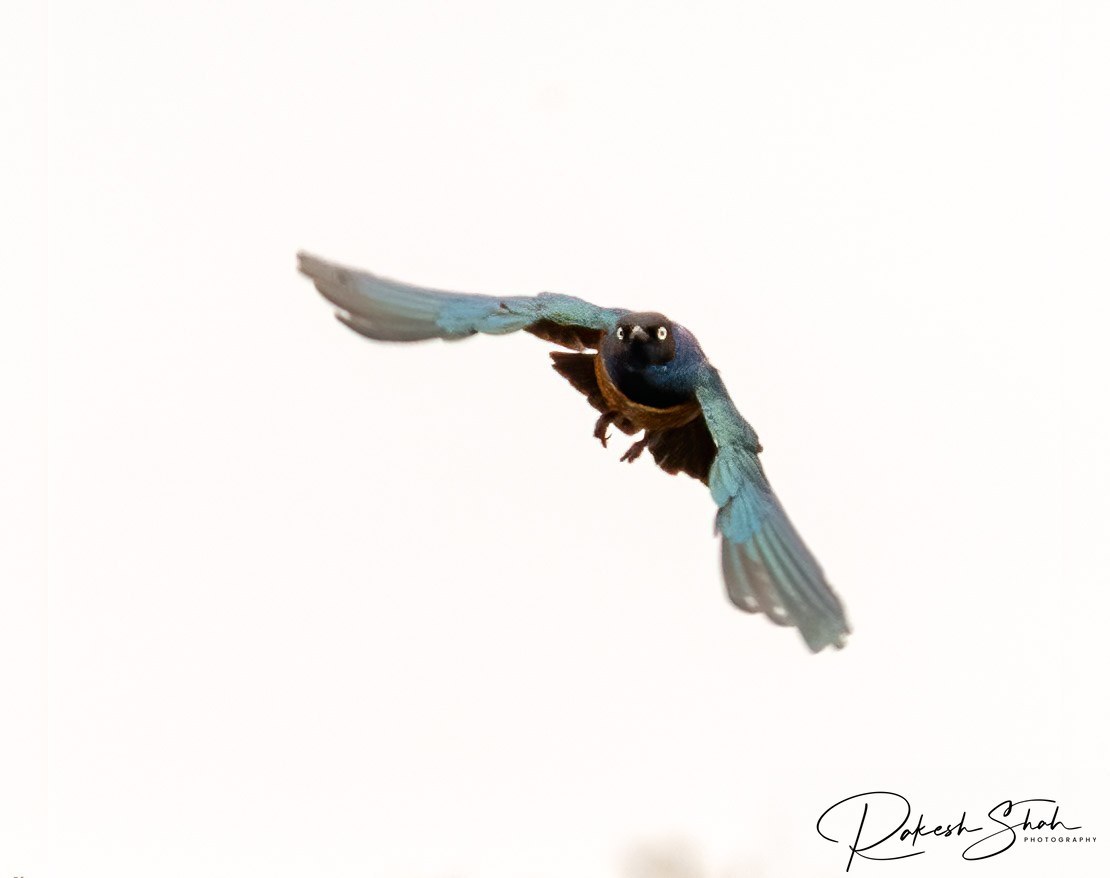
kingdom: Animalia
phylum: Chordata
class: Aves
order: Passeriformes
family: Sturnidae
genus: Lamprotornis
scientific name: Lamprotornis superbus
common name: Superb starling
